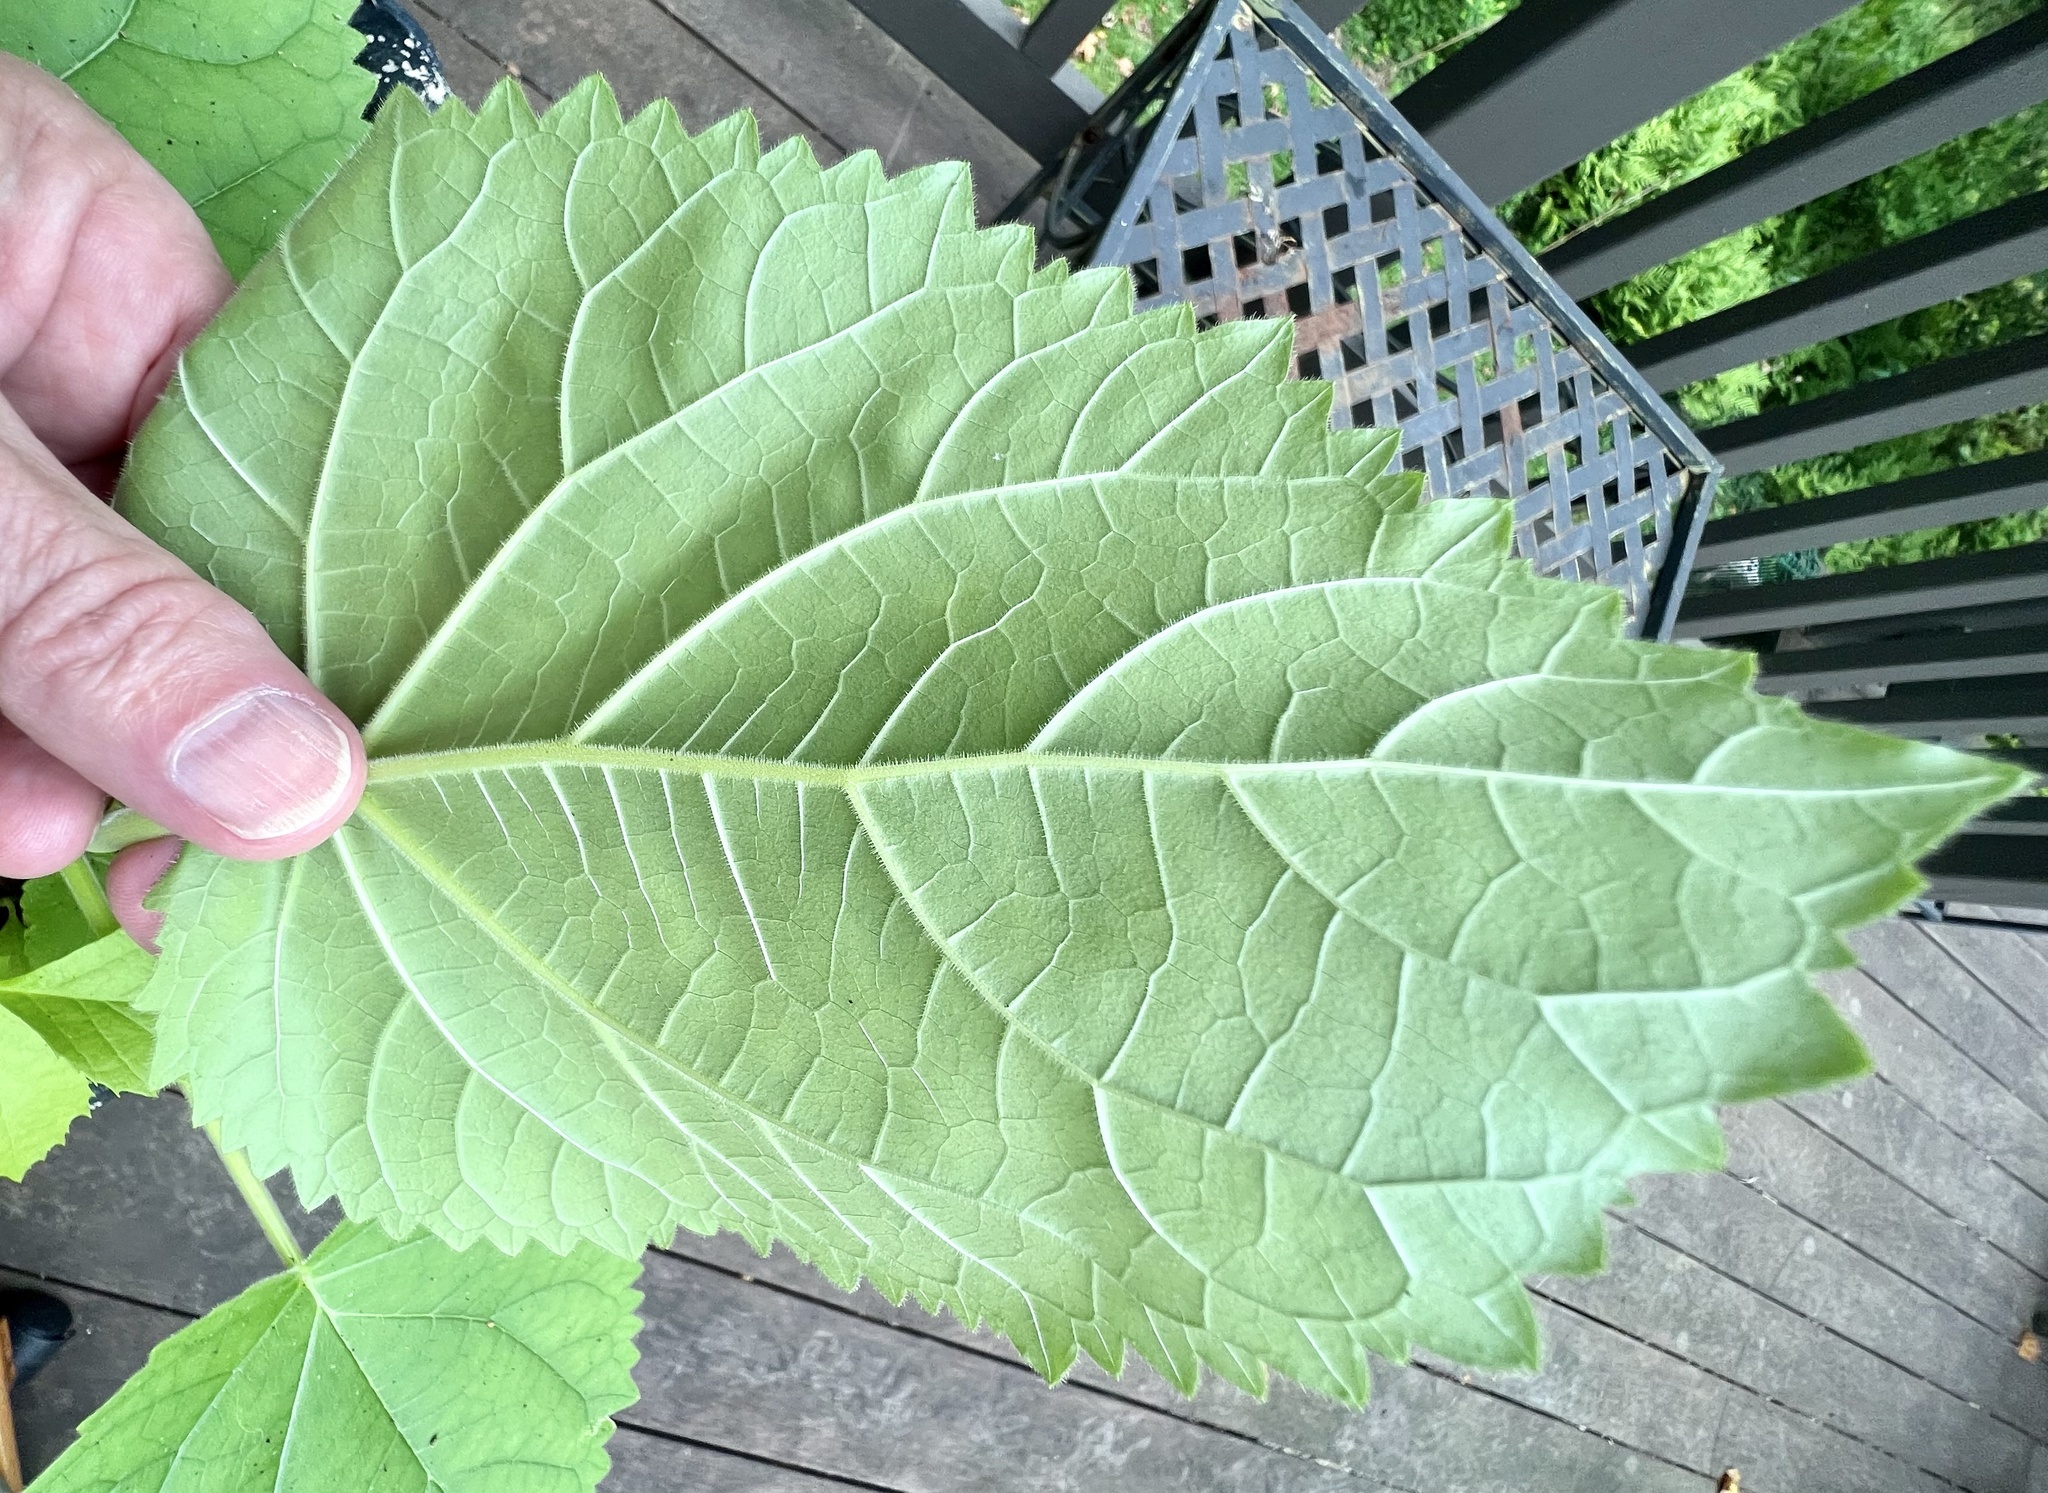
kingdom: Plantae
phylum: Tracheophyta
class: Magnoliopsida
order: Lamiales
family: Paulowniaceae
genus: Paulownia
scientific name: Paulownia tomentosa
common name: Foxglove-tree
